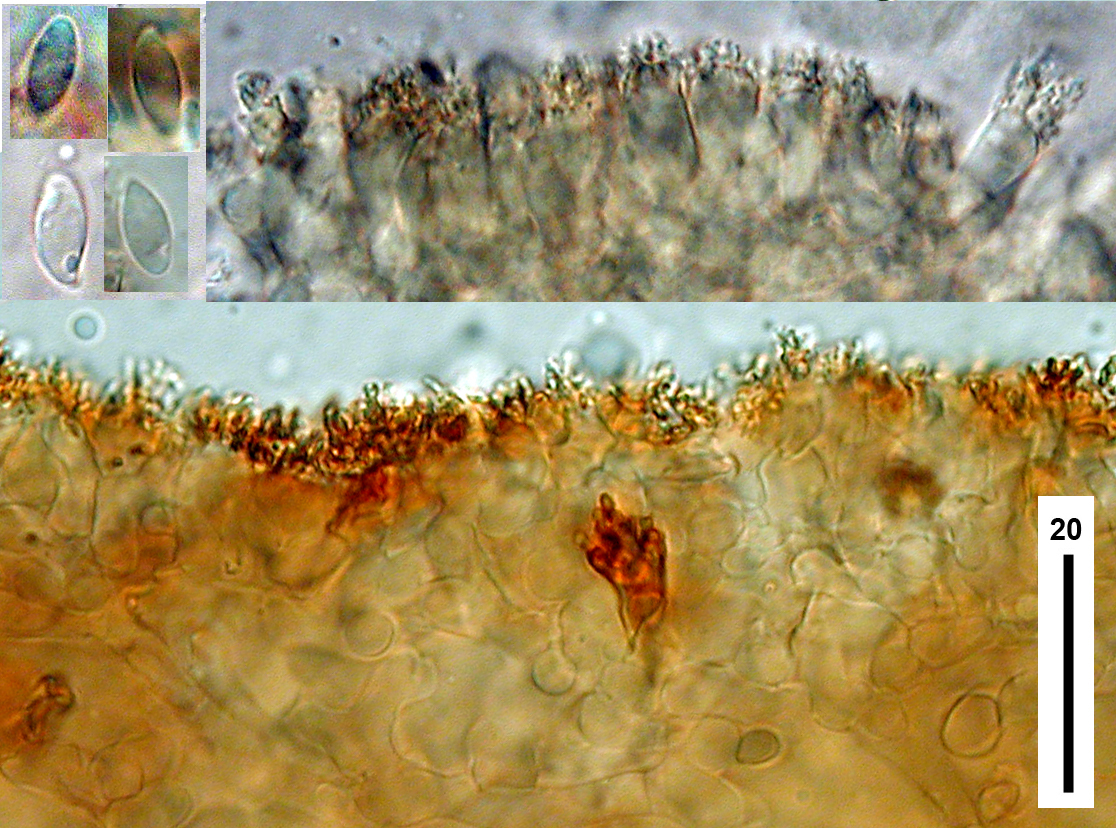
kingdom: Fungi
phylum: Basidiomycota
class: Agaricomycetes
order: Agaricales
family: Marasmiaceae
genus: Marasmius
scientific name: Marasmius croceus
